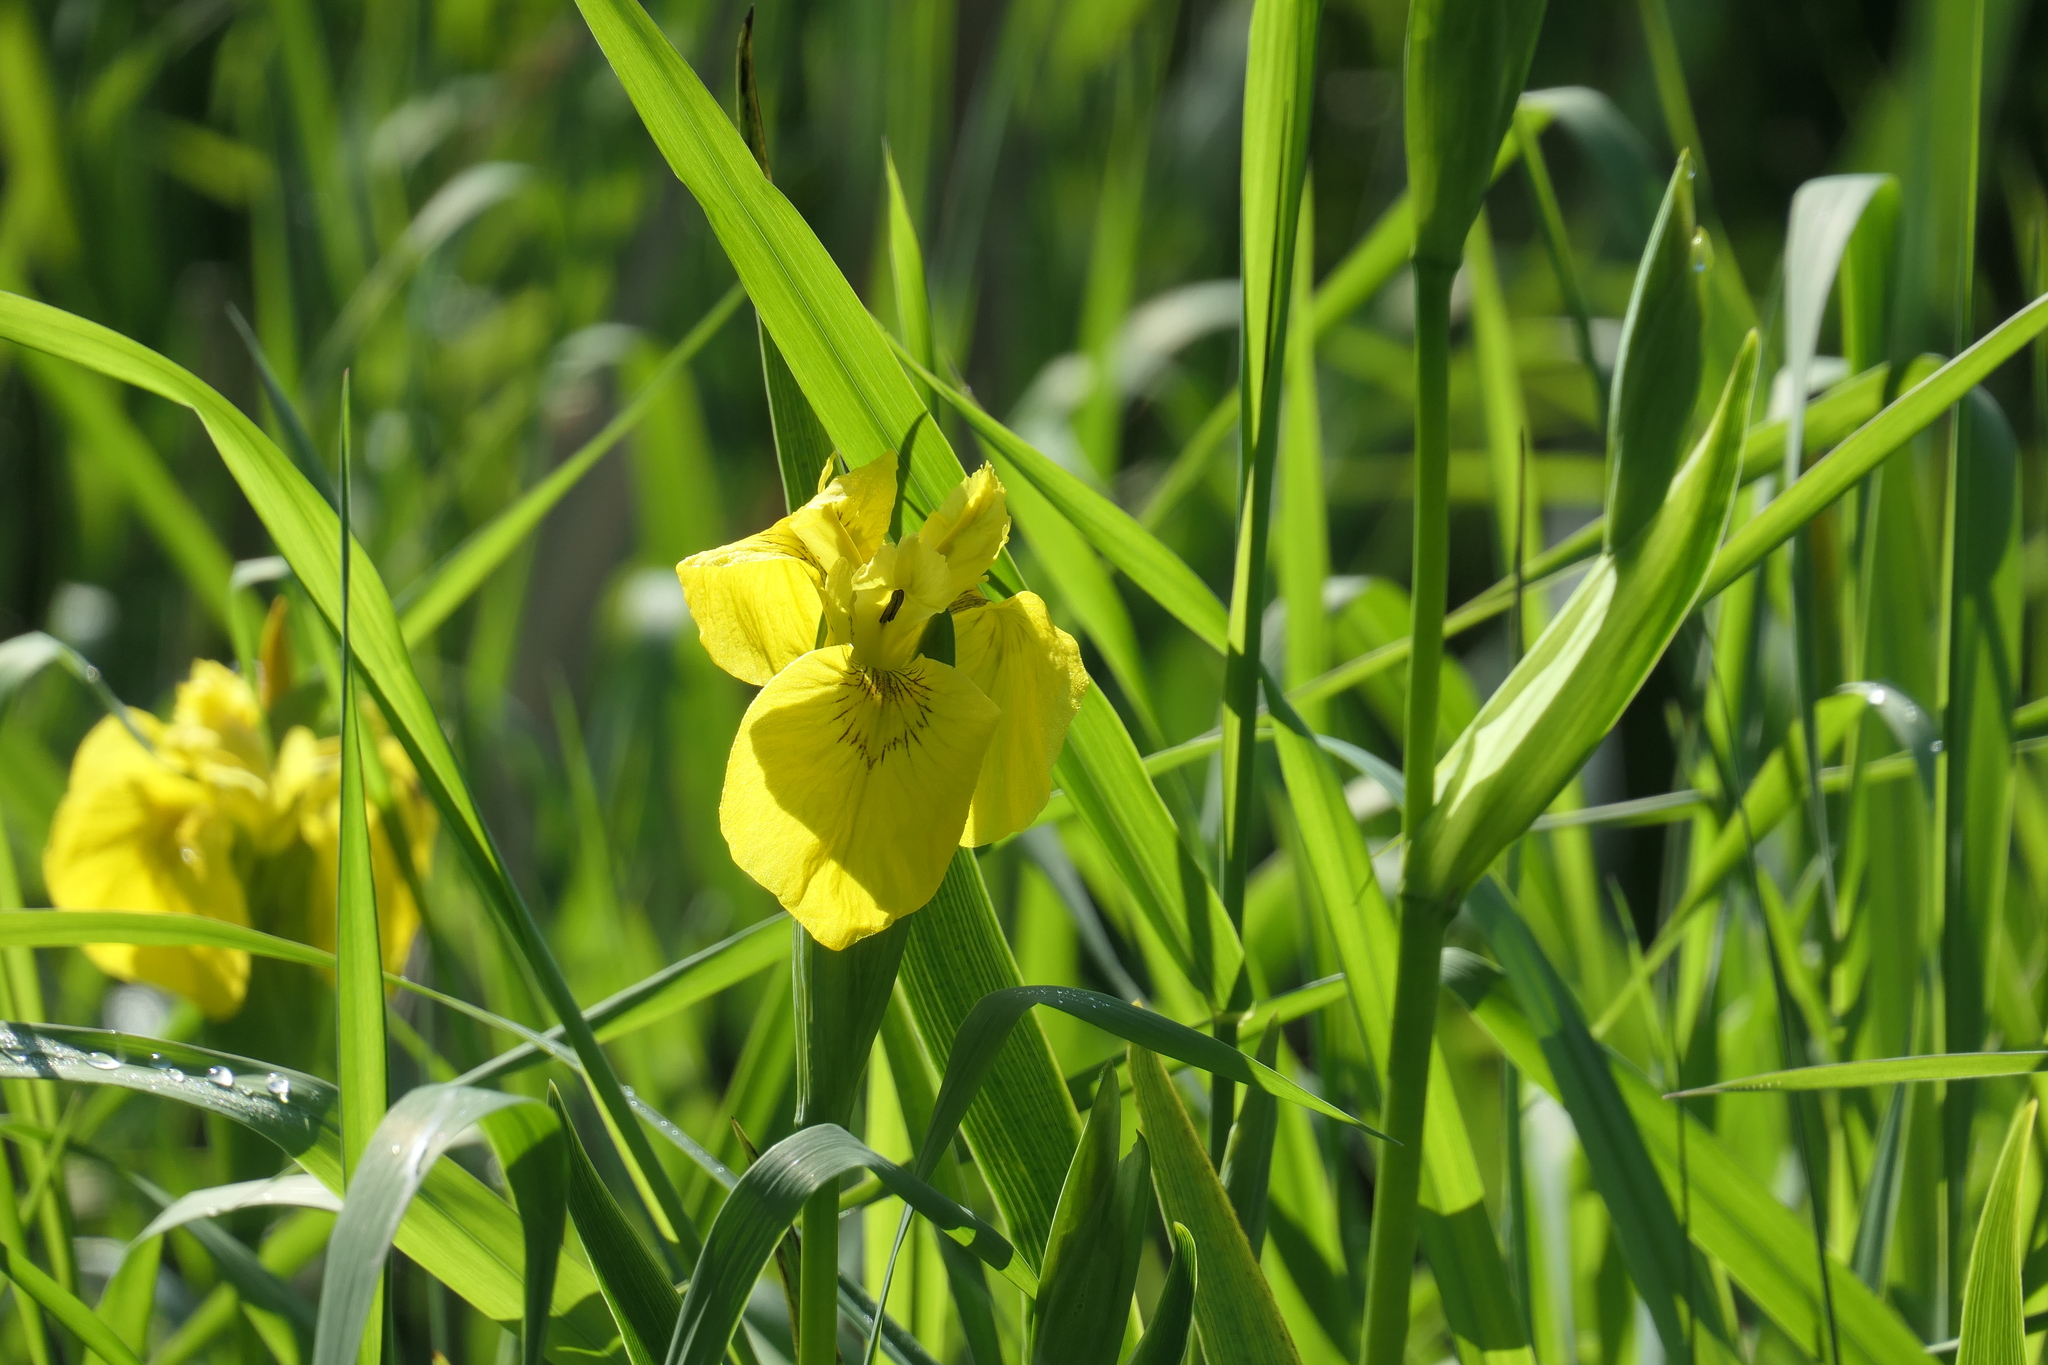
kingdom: Plantae
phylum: Tracheophyta
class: Liliopsida
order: Asparagales
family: Iridaceae
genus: Iris
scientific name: Iris pseudacorus
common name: Yellow flag
